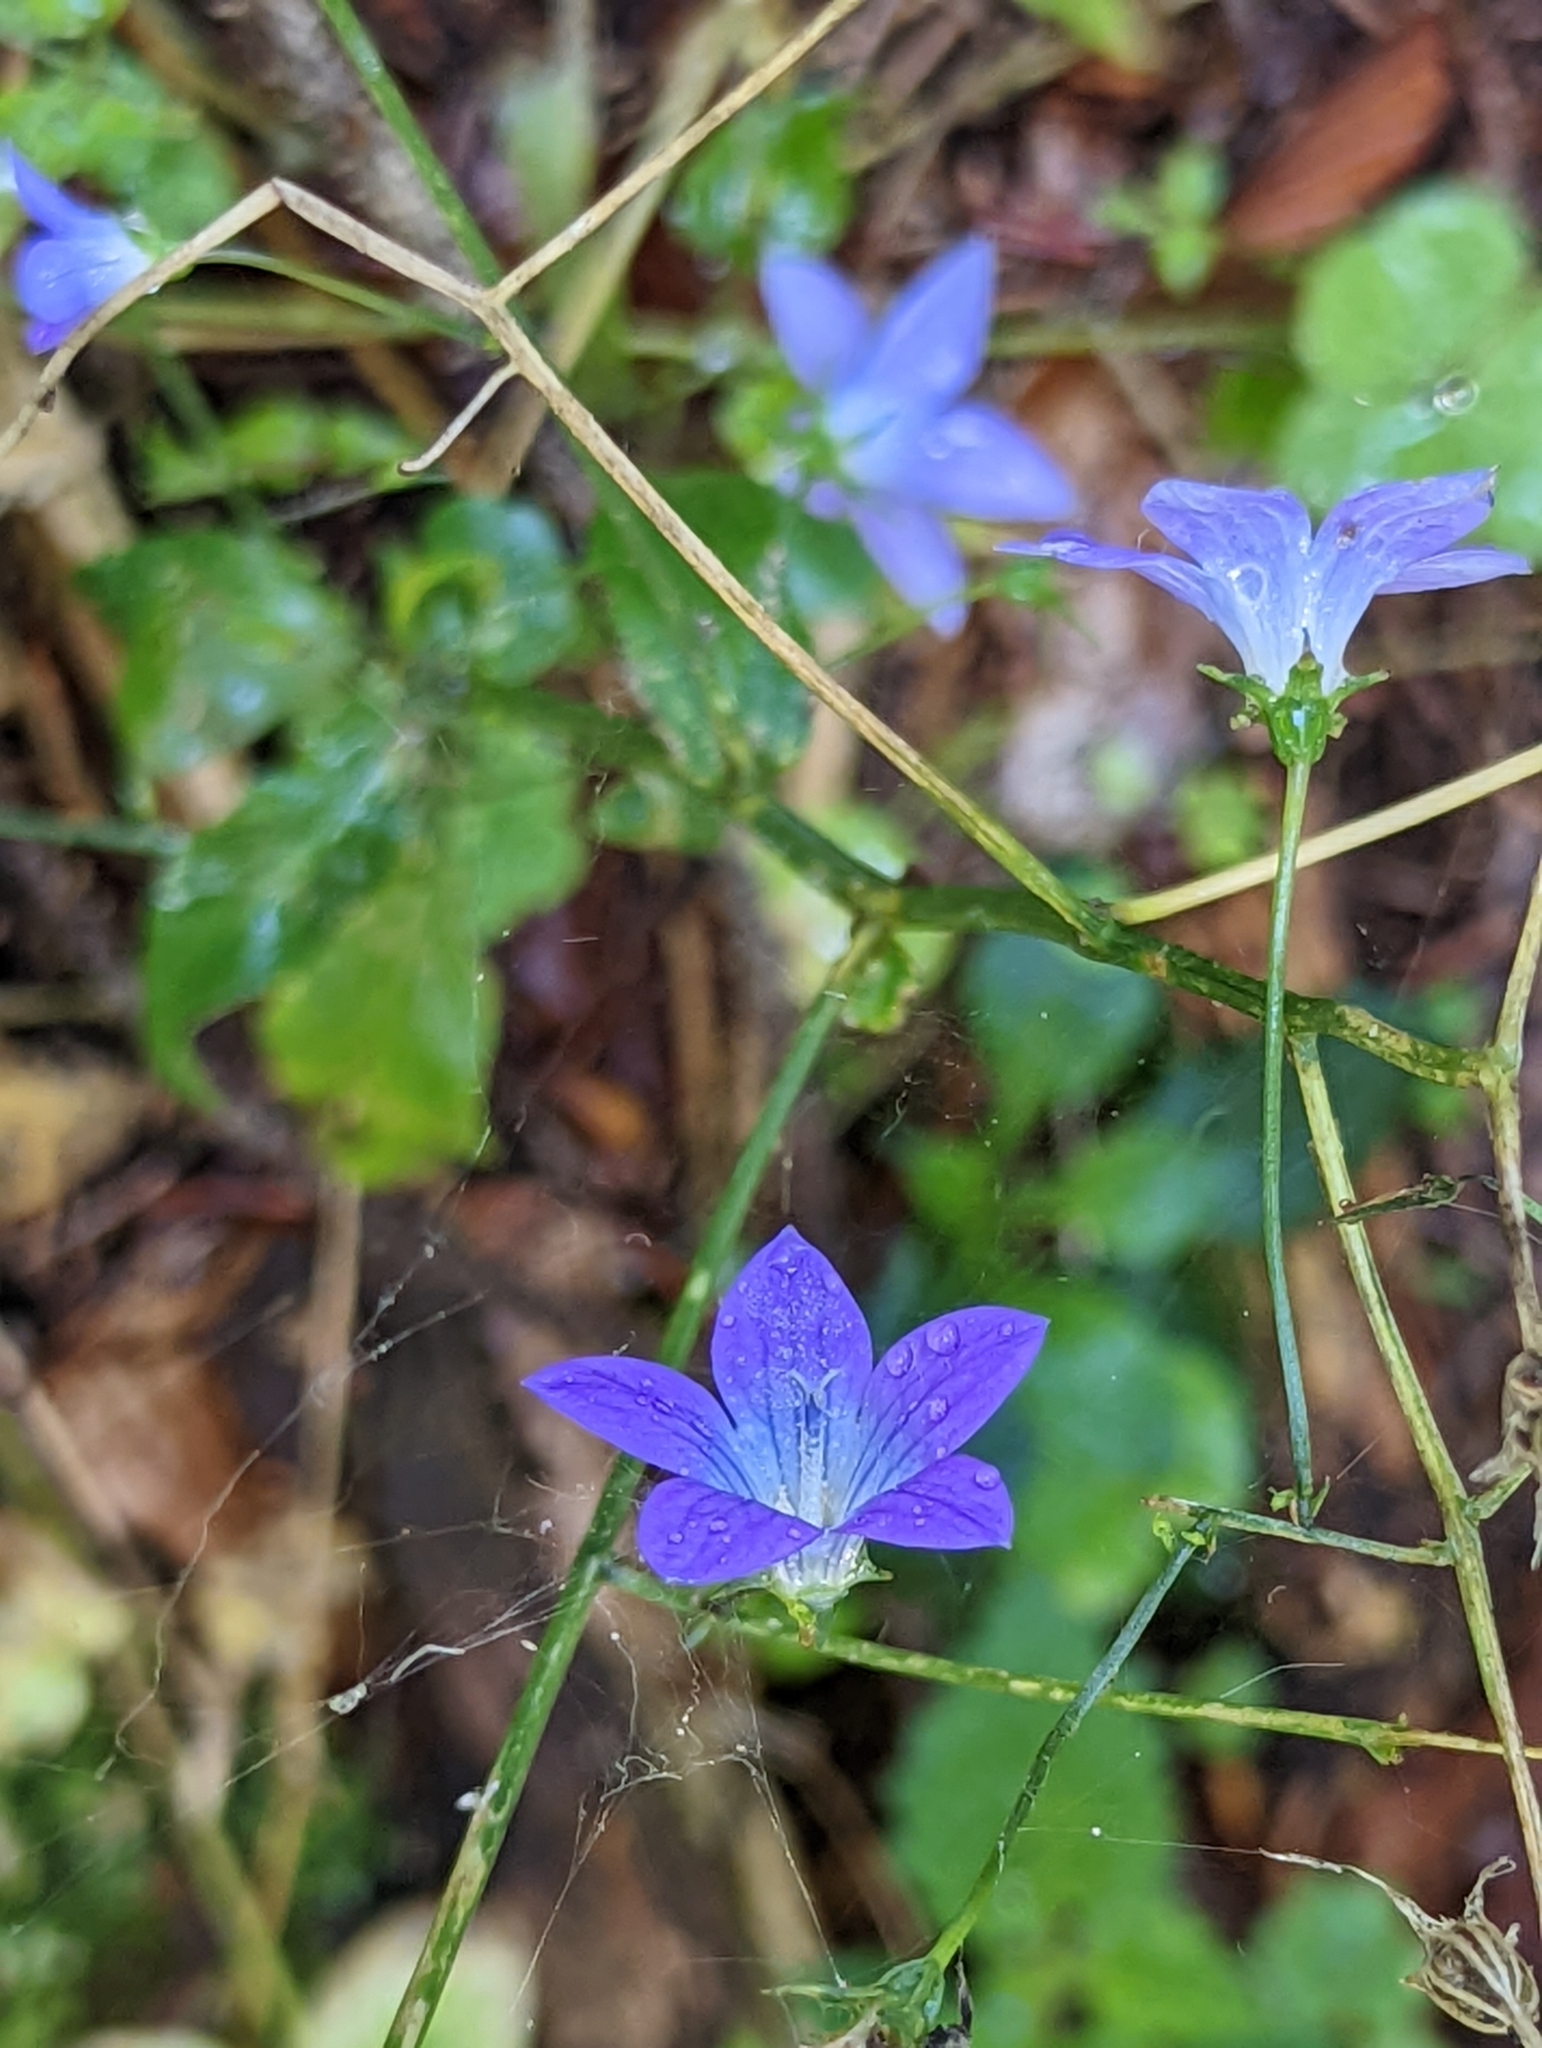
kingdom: Plantae
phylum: Tracheophyta
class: Magnoliopsida
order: Asterales
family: Campanulaceae
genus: Campanula
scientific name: Campanula patula
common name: Spreading bellflower
